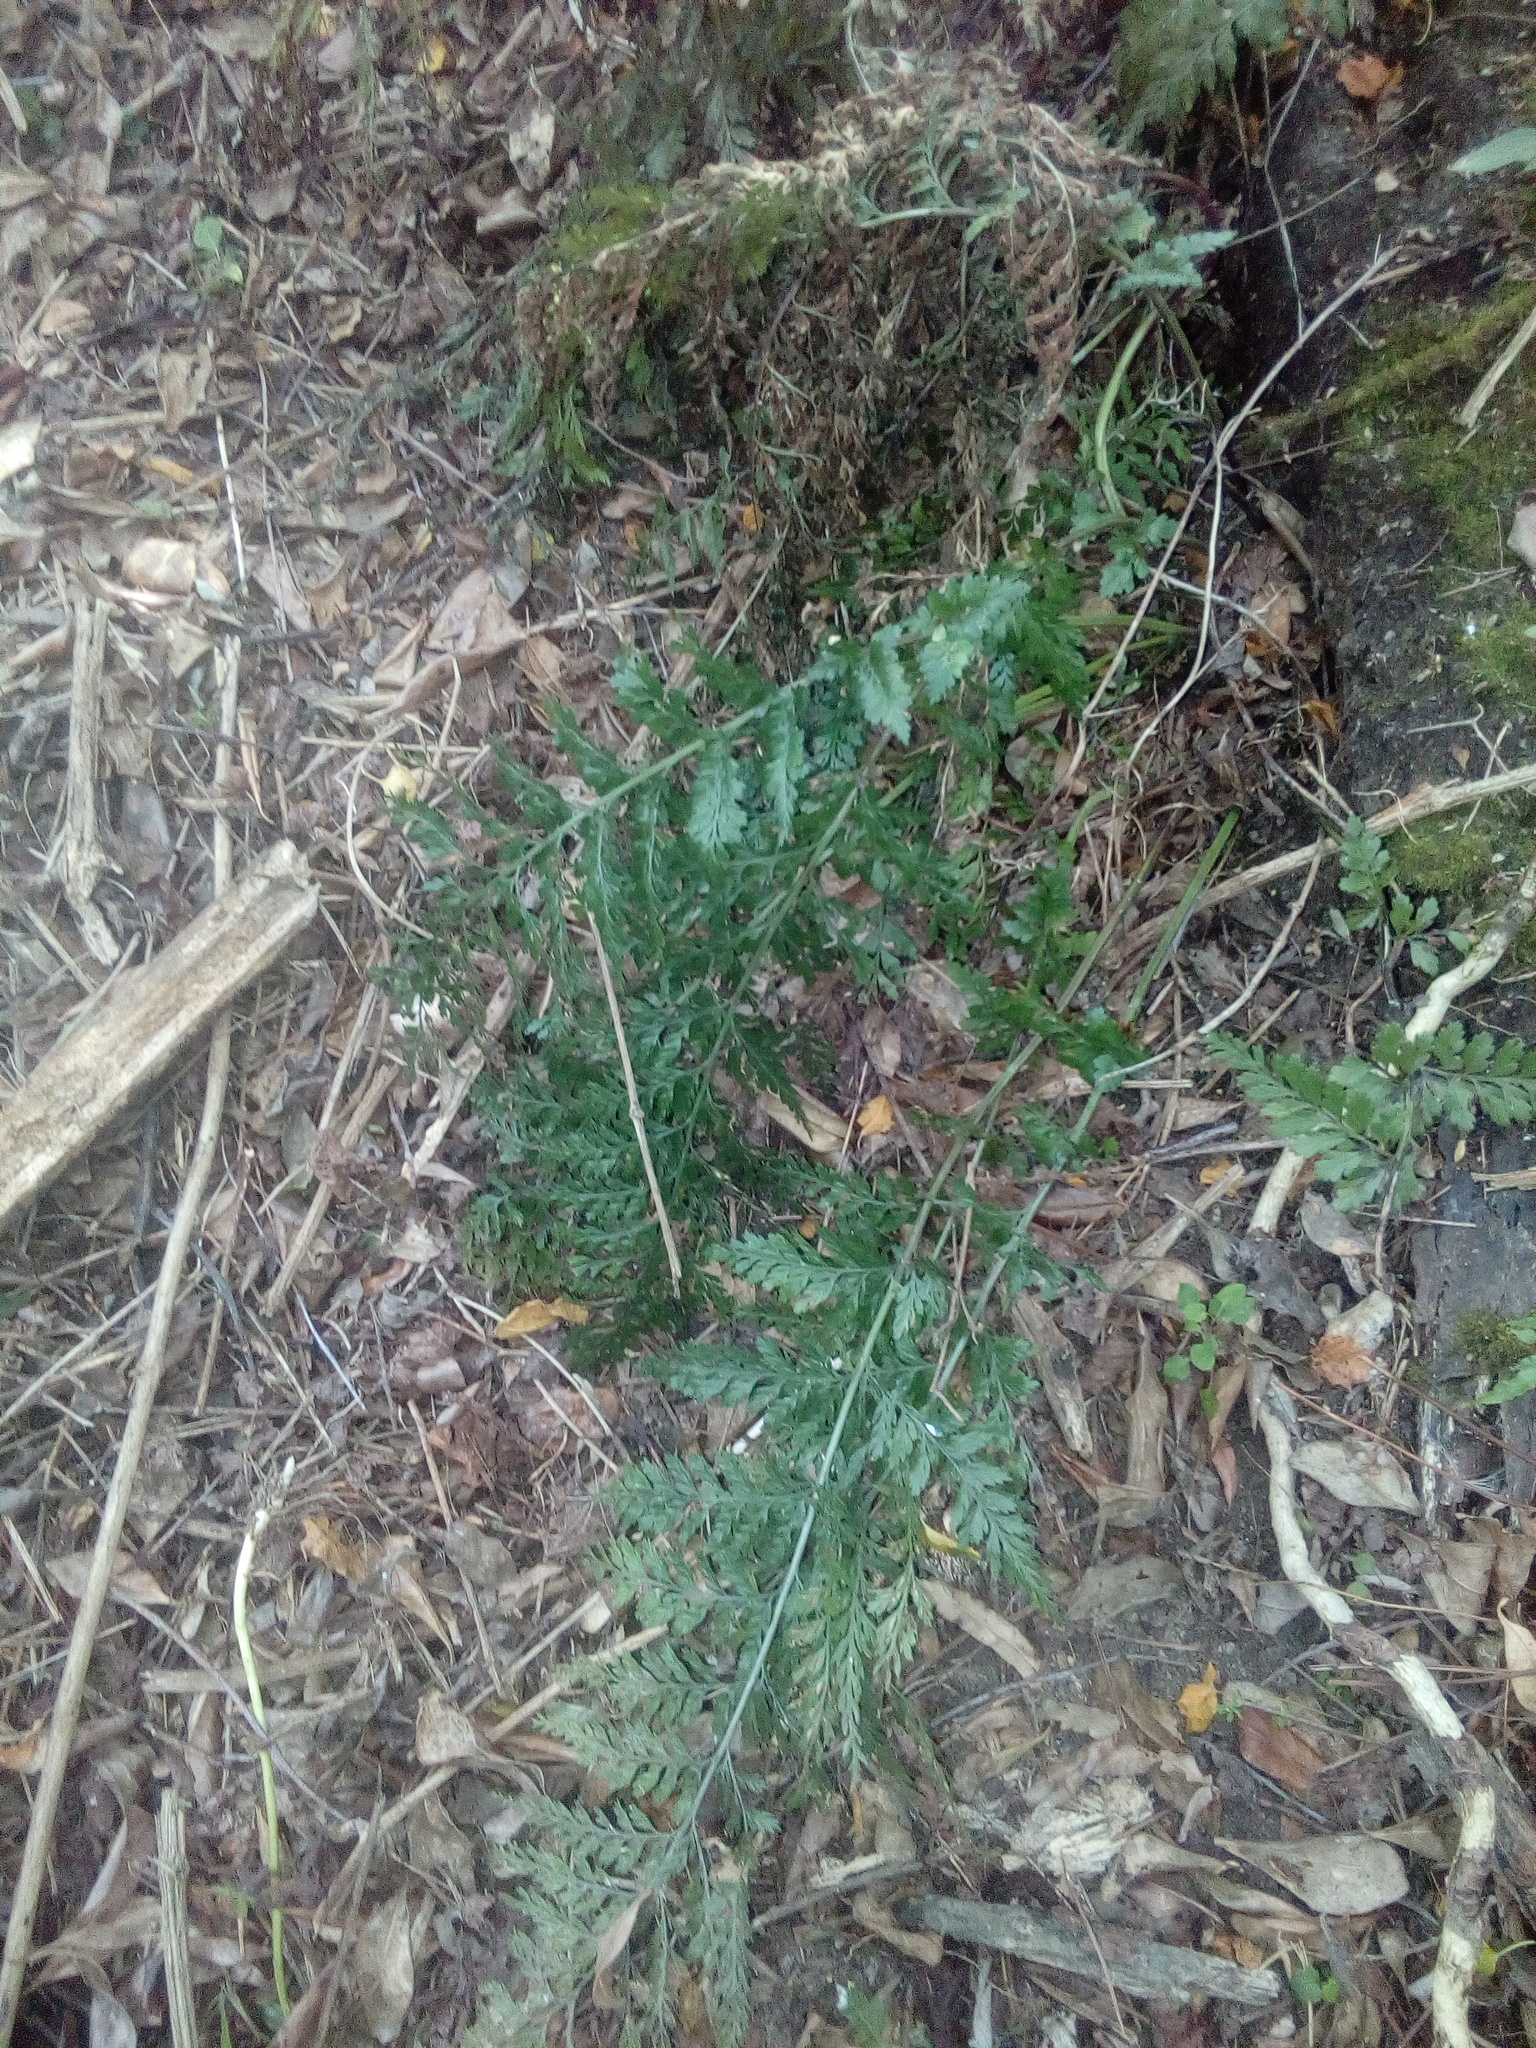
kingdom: Plantae
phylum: Tracheophyta
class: Polypodiopsida
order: Polypodiales
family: Aspleniaceae
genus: Asplenium
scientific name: Asplenium
